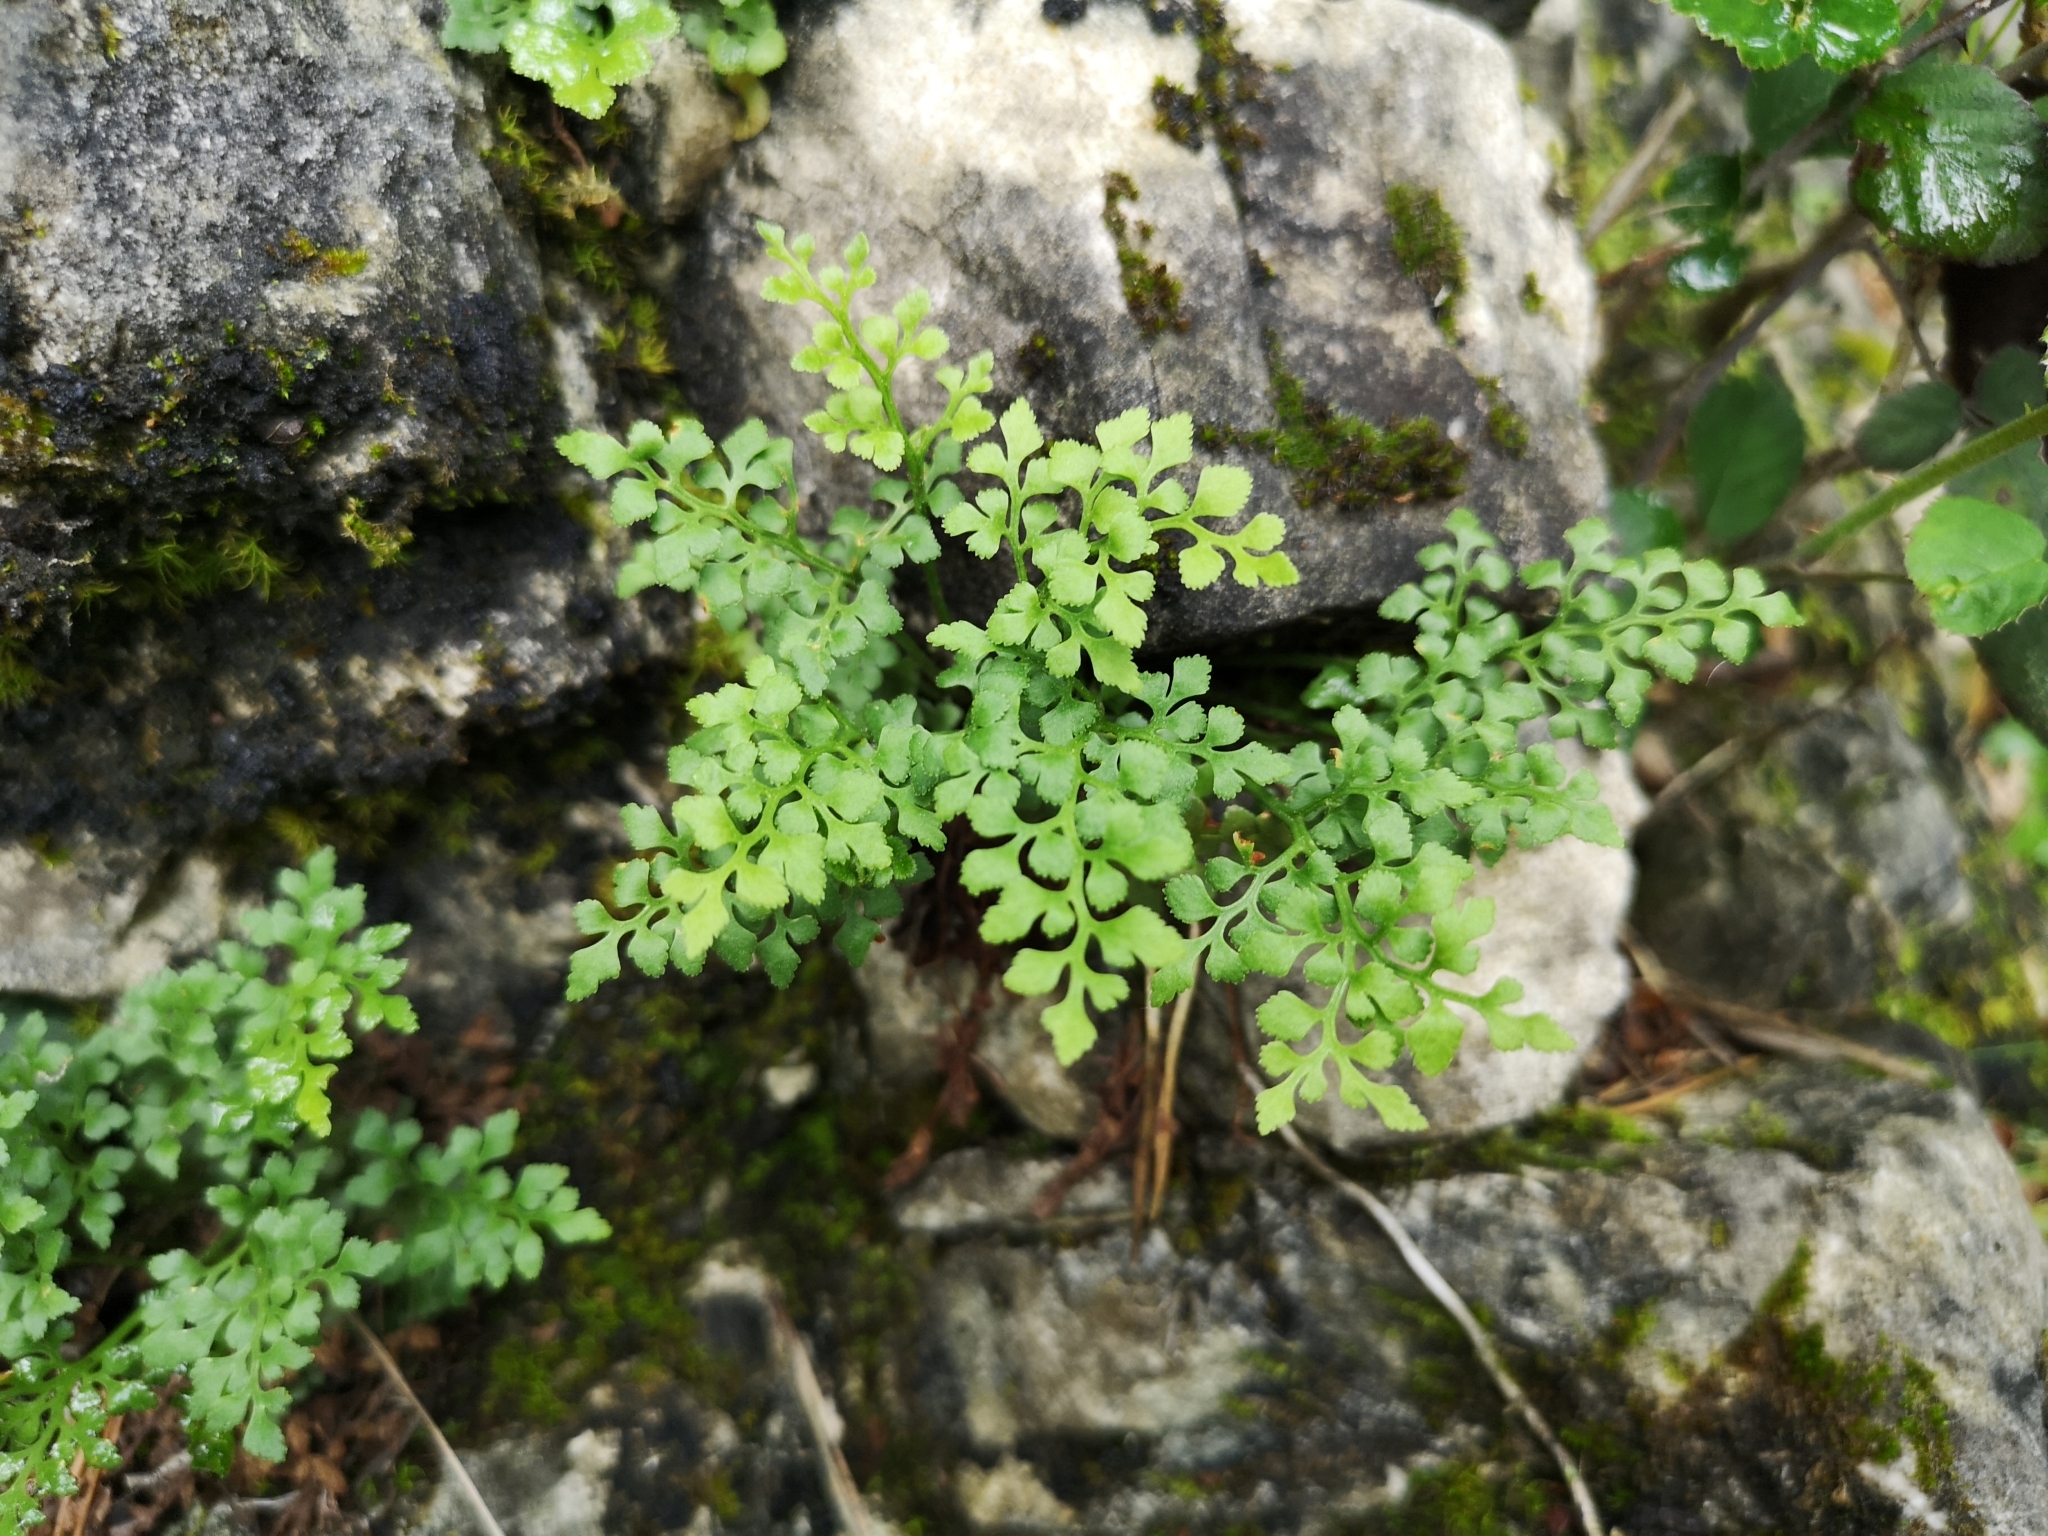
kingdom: Plantae
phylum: Tracheophyta
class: Polypodiopsida
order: Polypodiales
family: Aspleniaceae
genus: Asplenium
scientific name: Asplenium ruta-muraria
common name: Wall-rue
